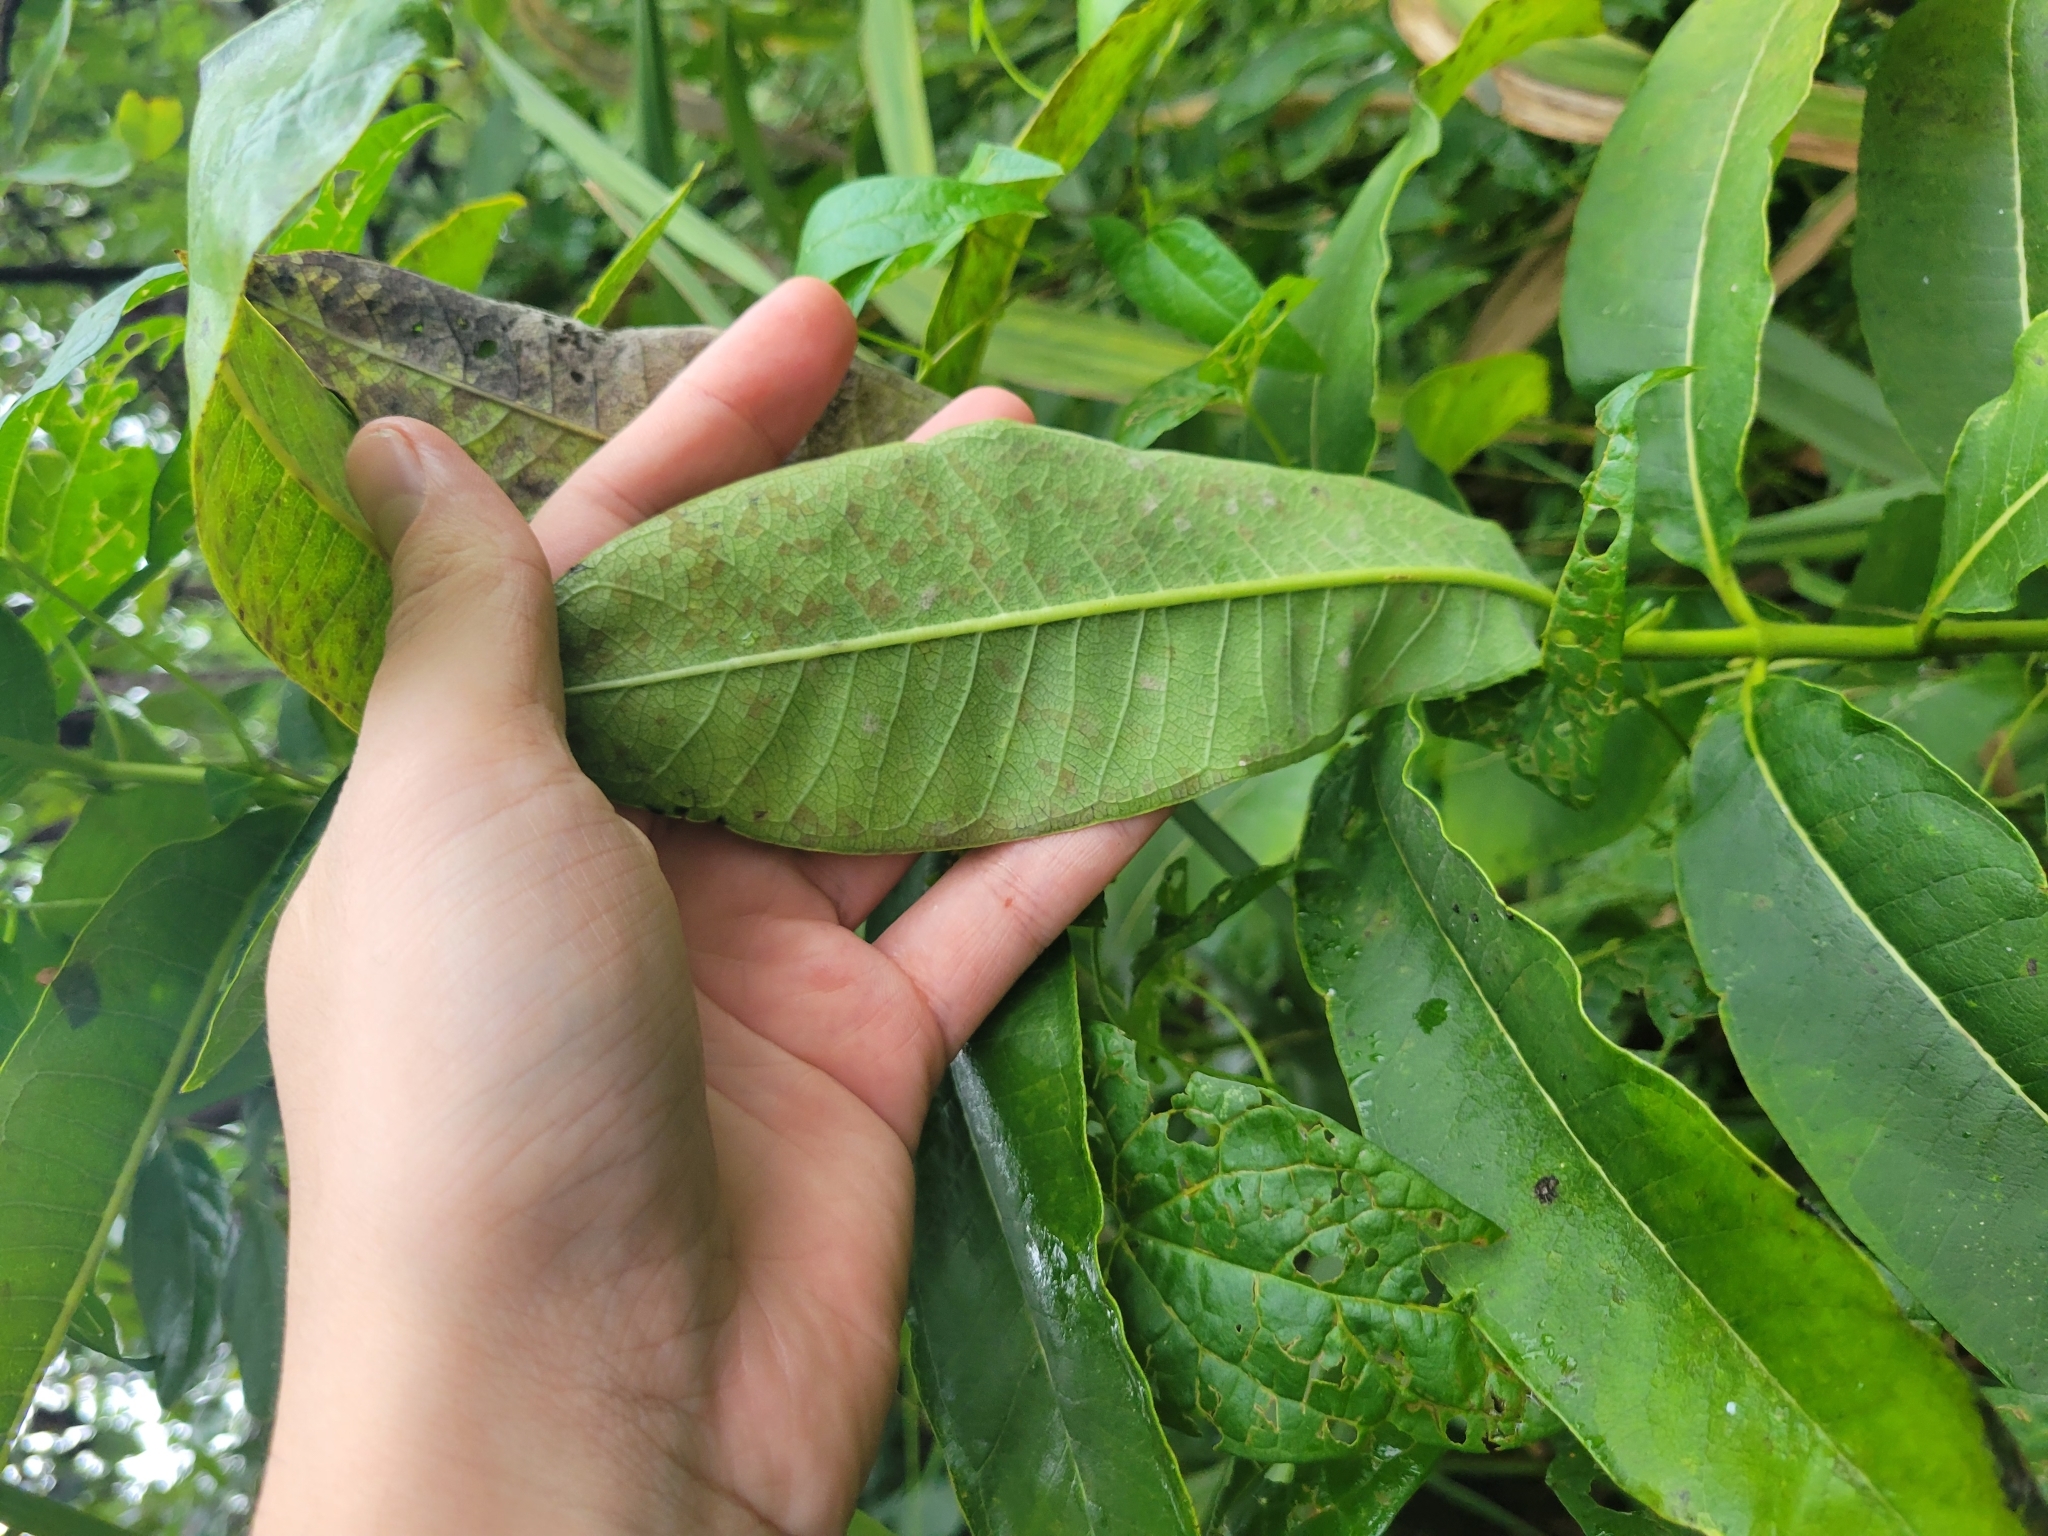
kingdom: Plantae
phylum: Tracheophyta
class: Magnoliopsida
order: Gentianales
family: Apocynaceae
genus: Asclepias
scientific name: Asclepias syriaca
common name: Common milkweed
